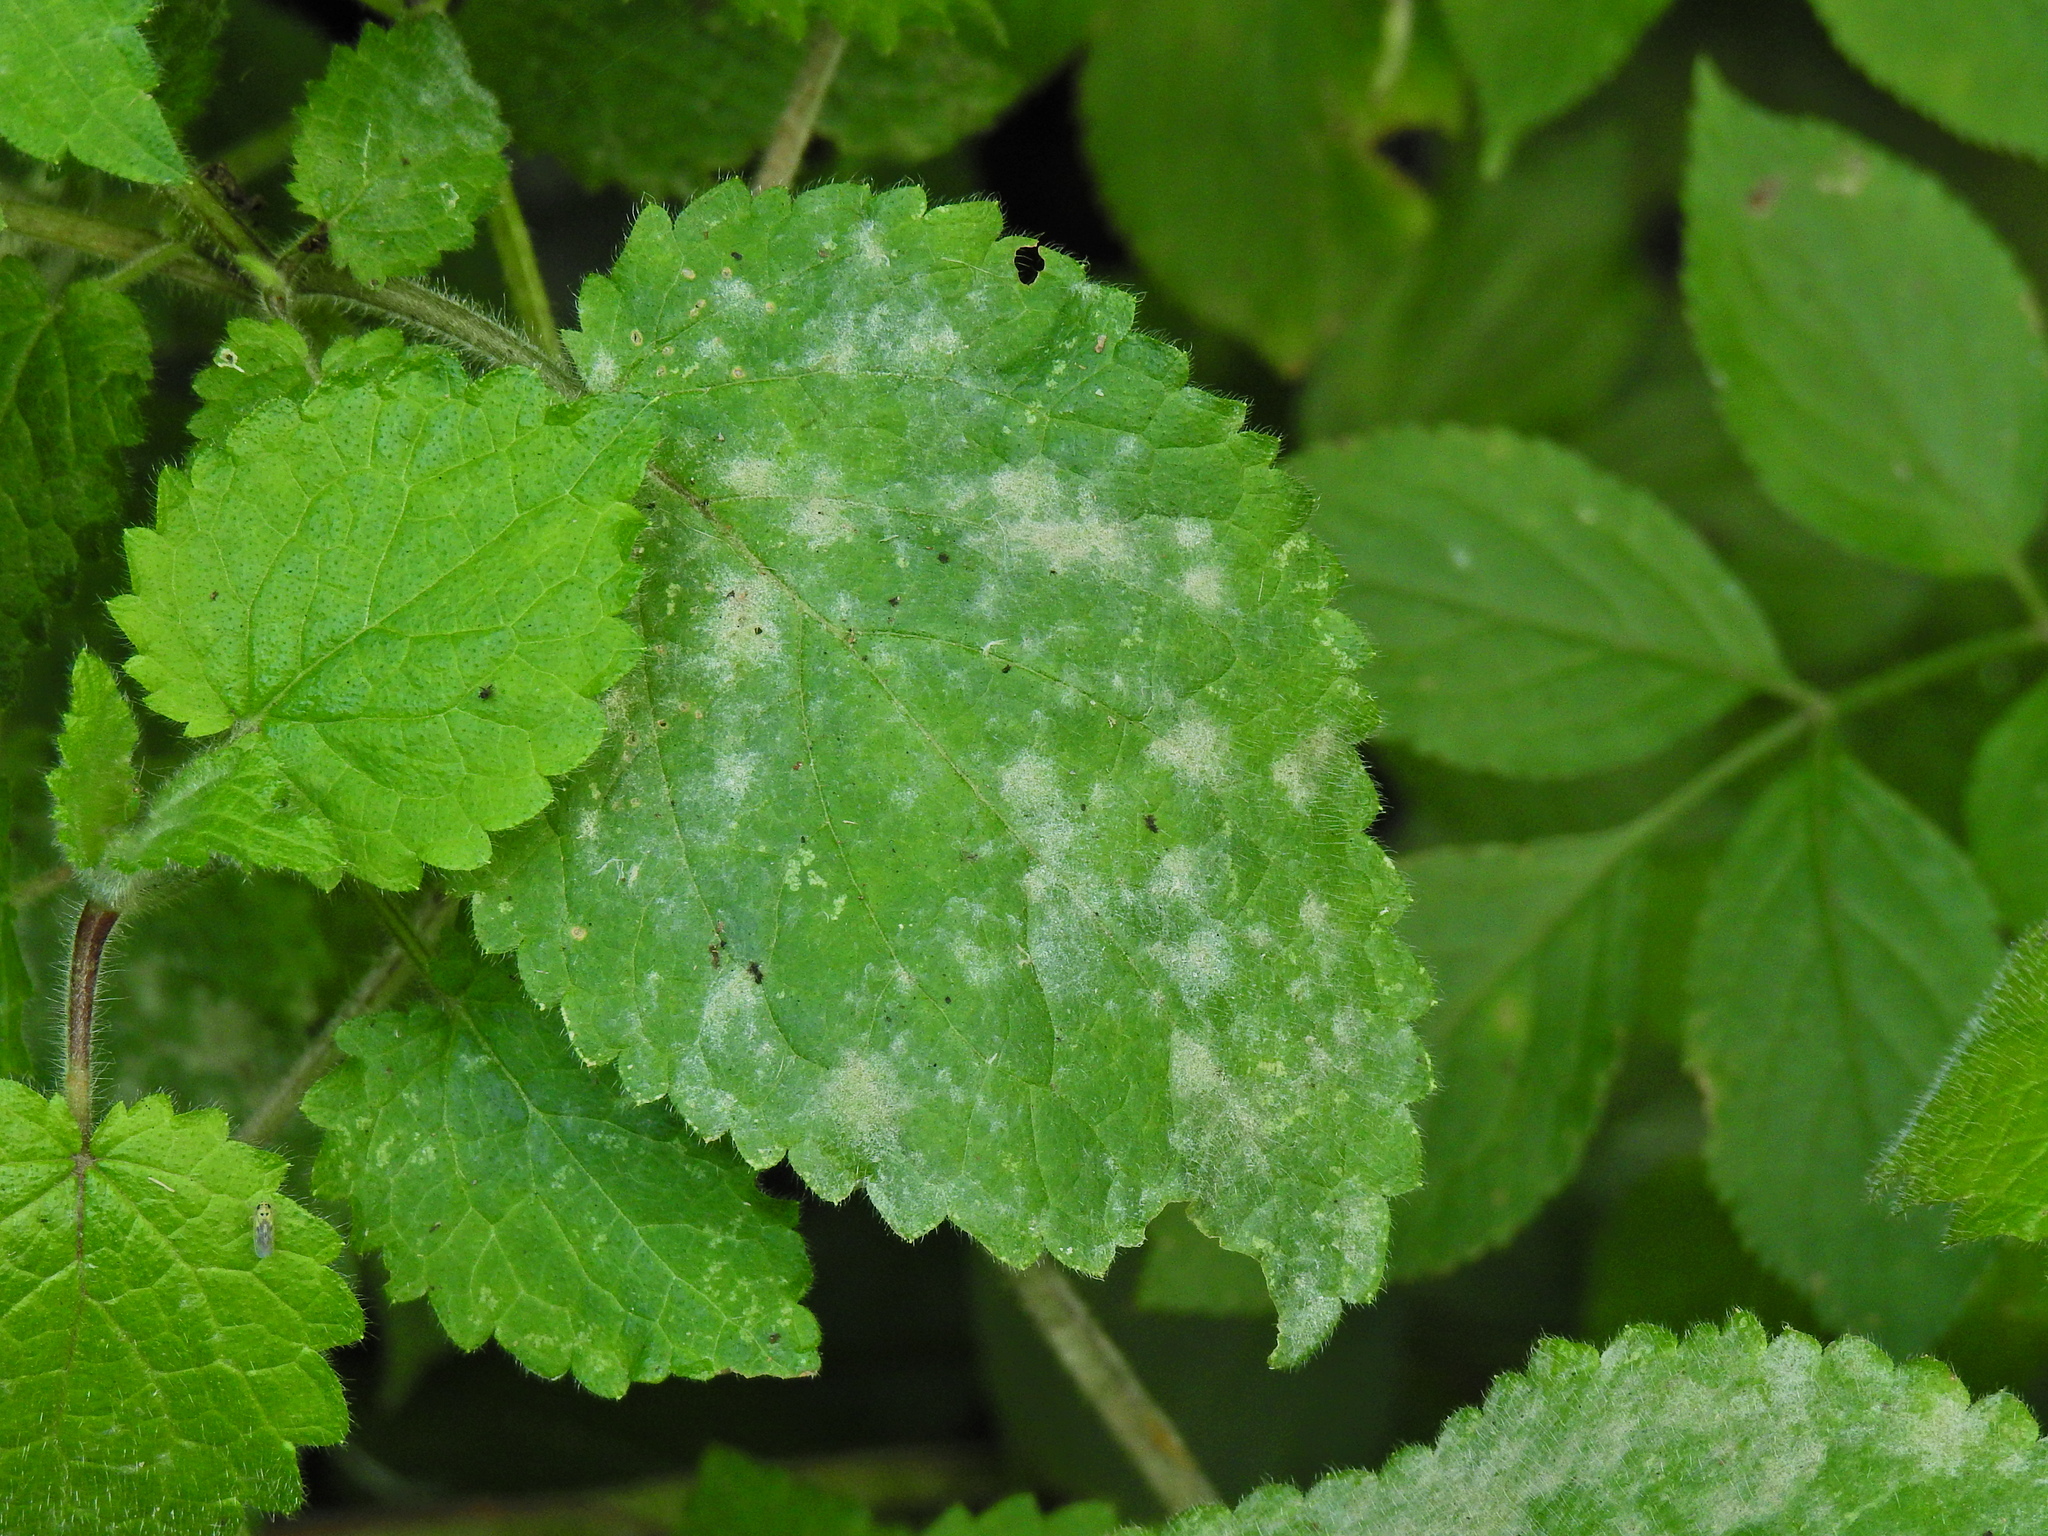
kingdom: Fungi
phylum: Ascomycota
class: Leotiomycetes
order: Helotiales
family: Erysiphaceae
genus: Neoerysiphe
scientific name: Neoerysiphe galeopsidis
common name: Mint mildew
